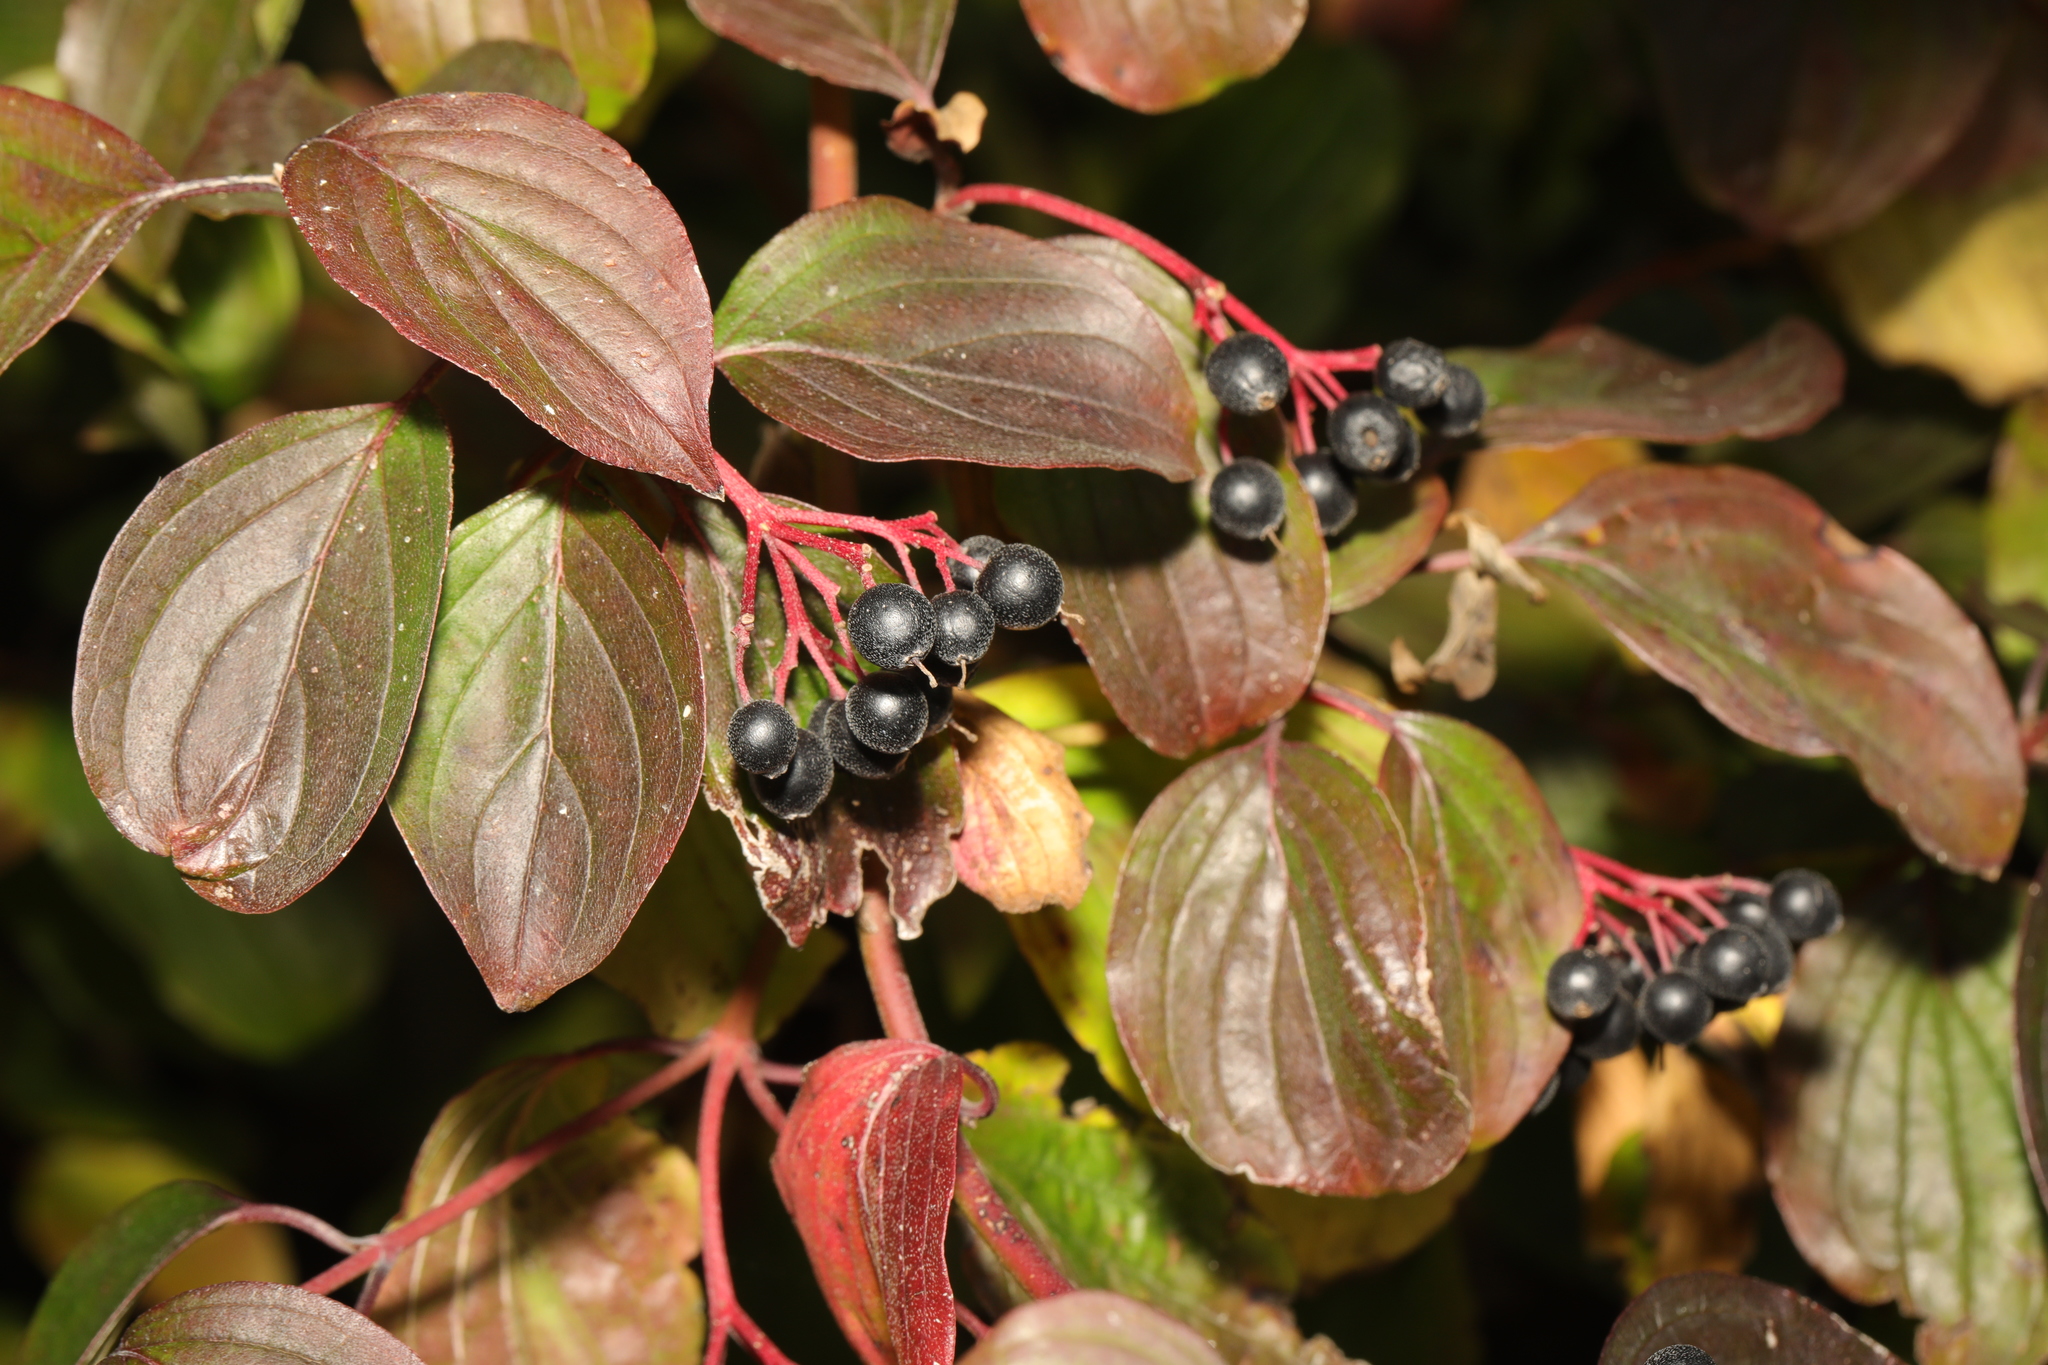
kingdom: Plantae
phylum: Tracheophyta
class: Magnoliopsida
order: Cornales
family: Cornaceae
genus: Cornus
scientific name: Cornus sanguinea
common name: Dogwood
